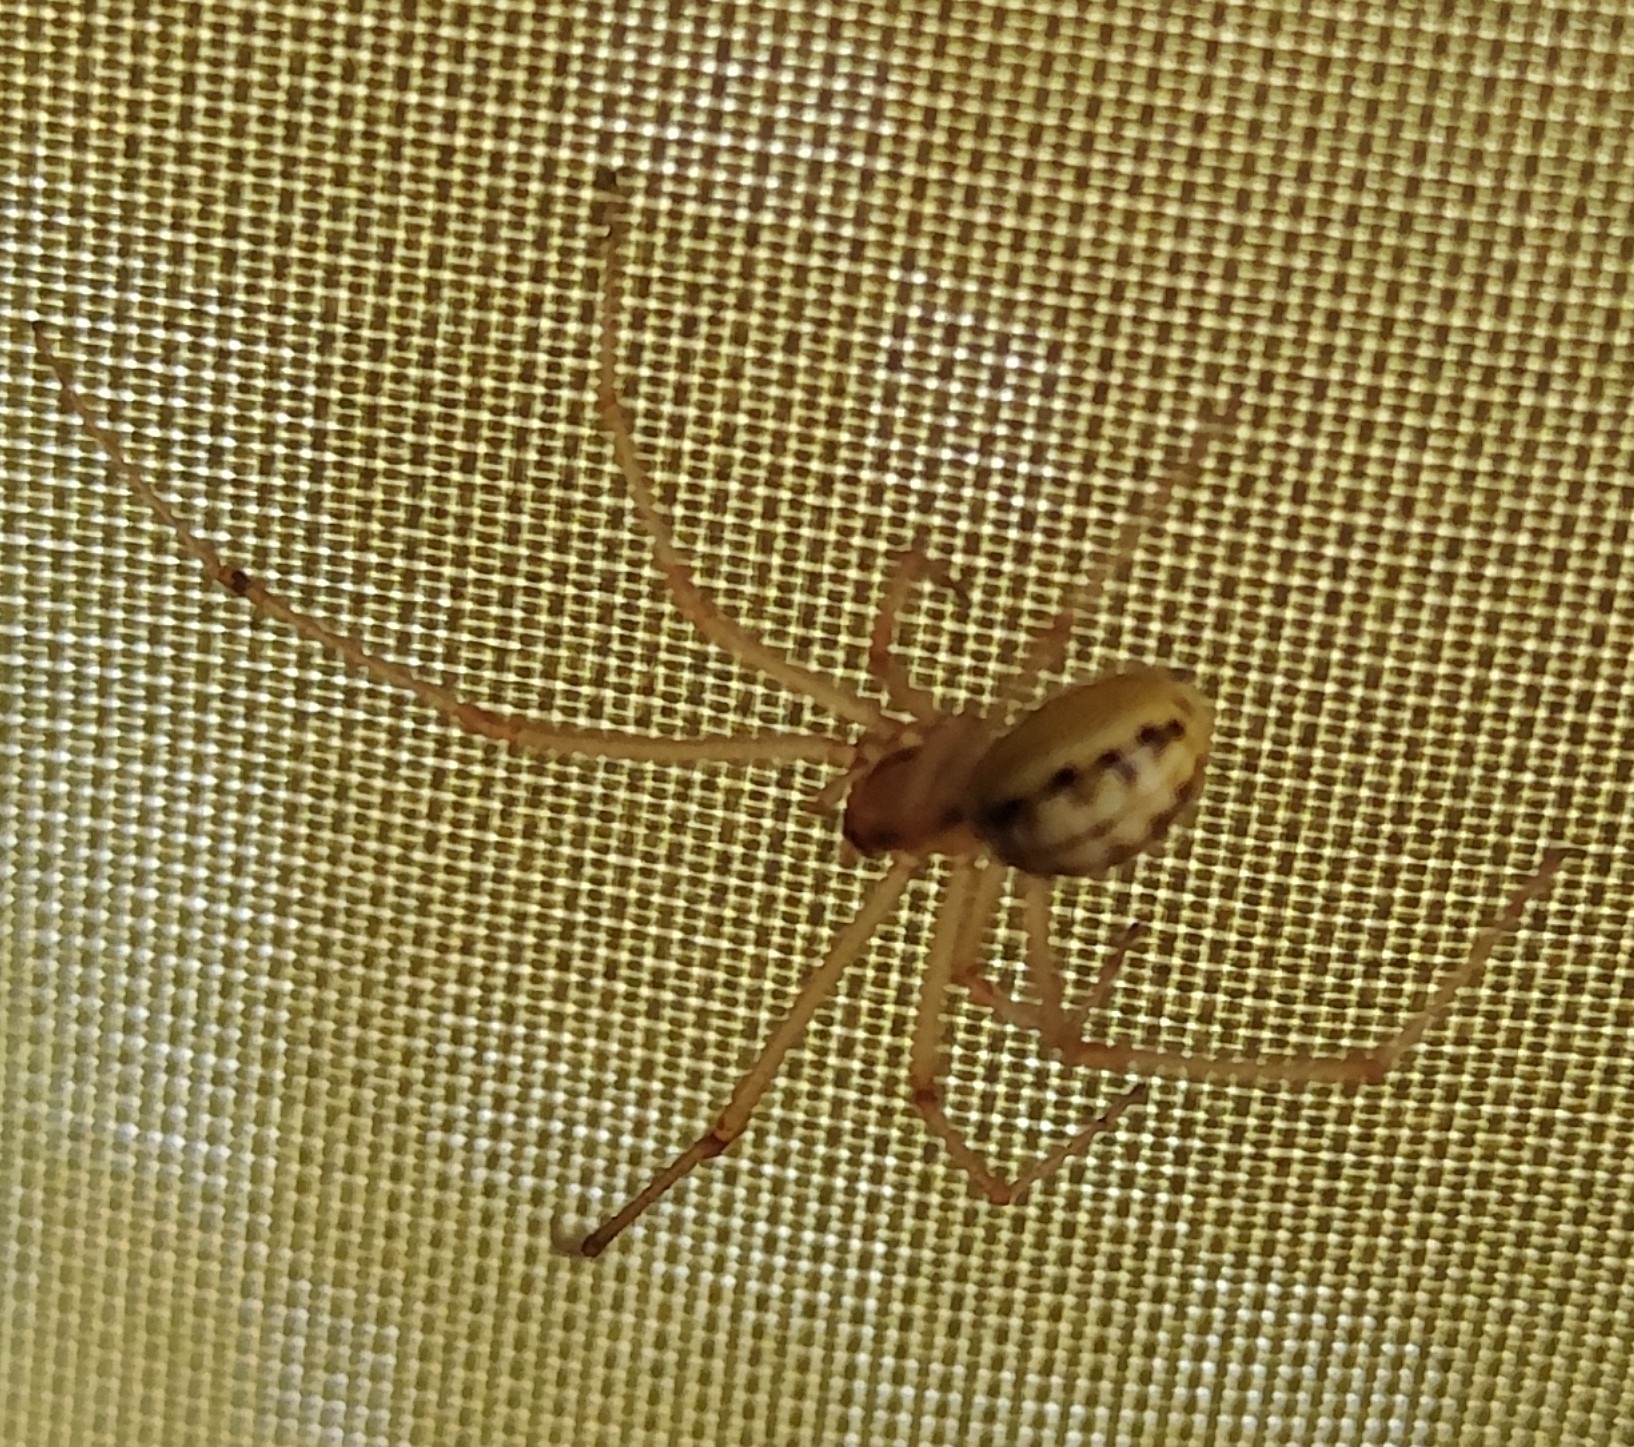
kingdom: Animalia
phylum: Arthropoda
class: Arachnida
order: Araneae
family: Theridiidae
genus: Enoplognatha
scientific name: Enoplognatha ovata
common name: Common candy-striped spider
